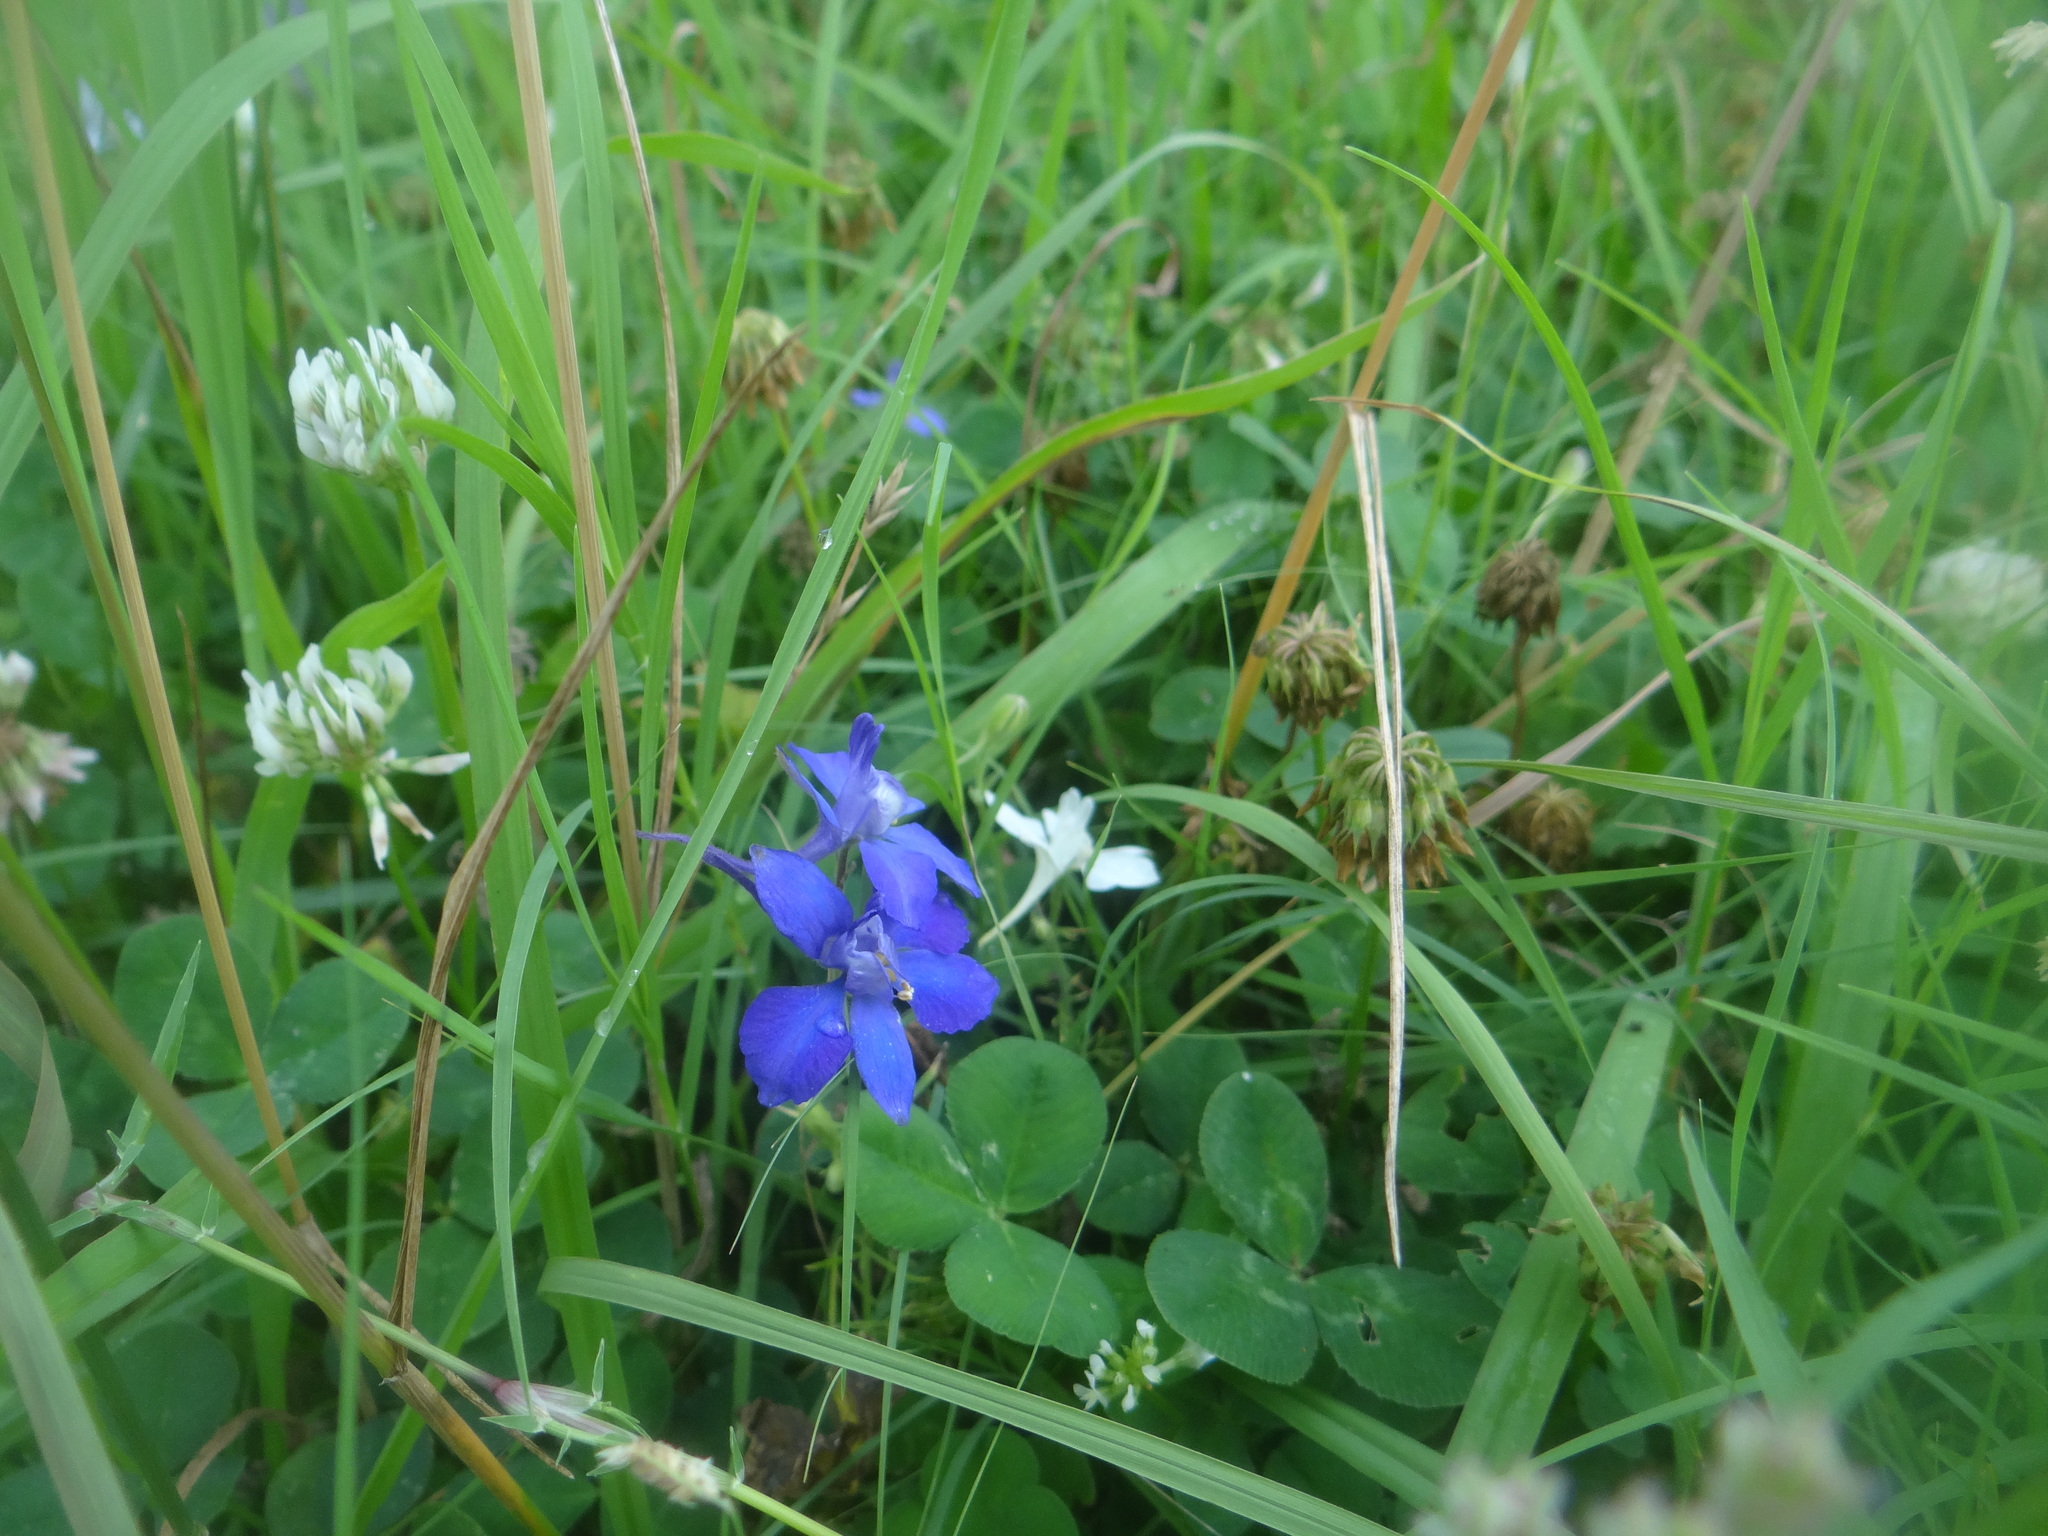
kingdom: Plantae
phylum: Tracheophyta
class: Magnoliopsida
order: Ranunculales
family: Ranunculaceae
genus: Delphinium
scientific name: Delphinium ajacis
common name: Doubtful knight's-spur
